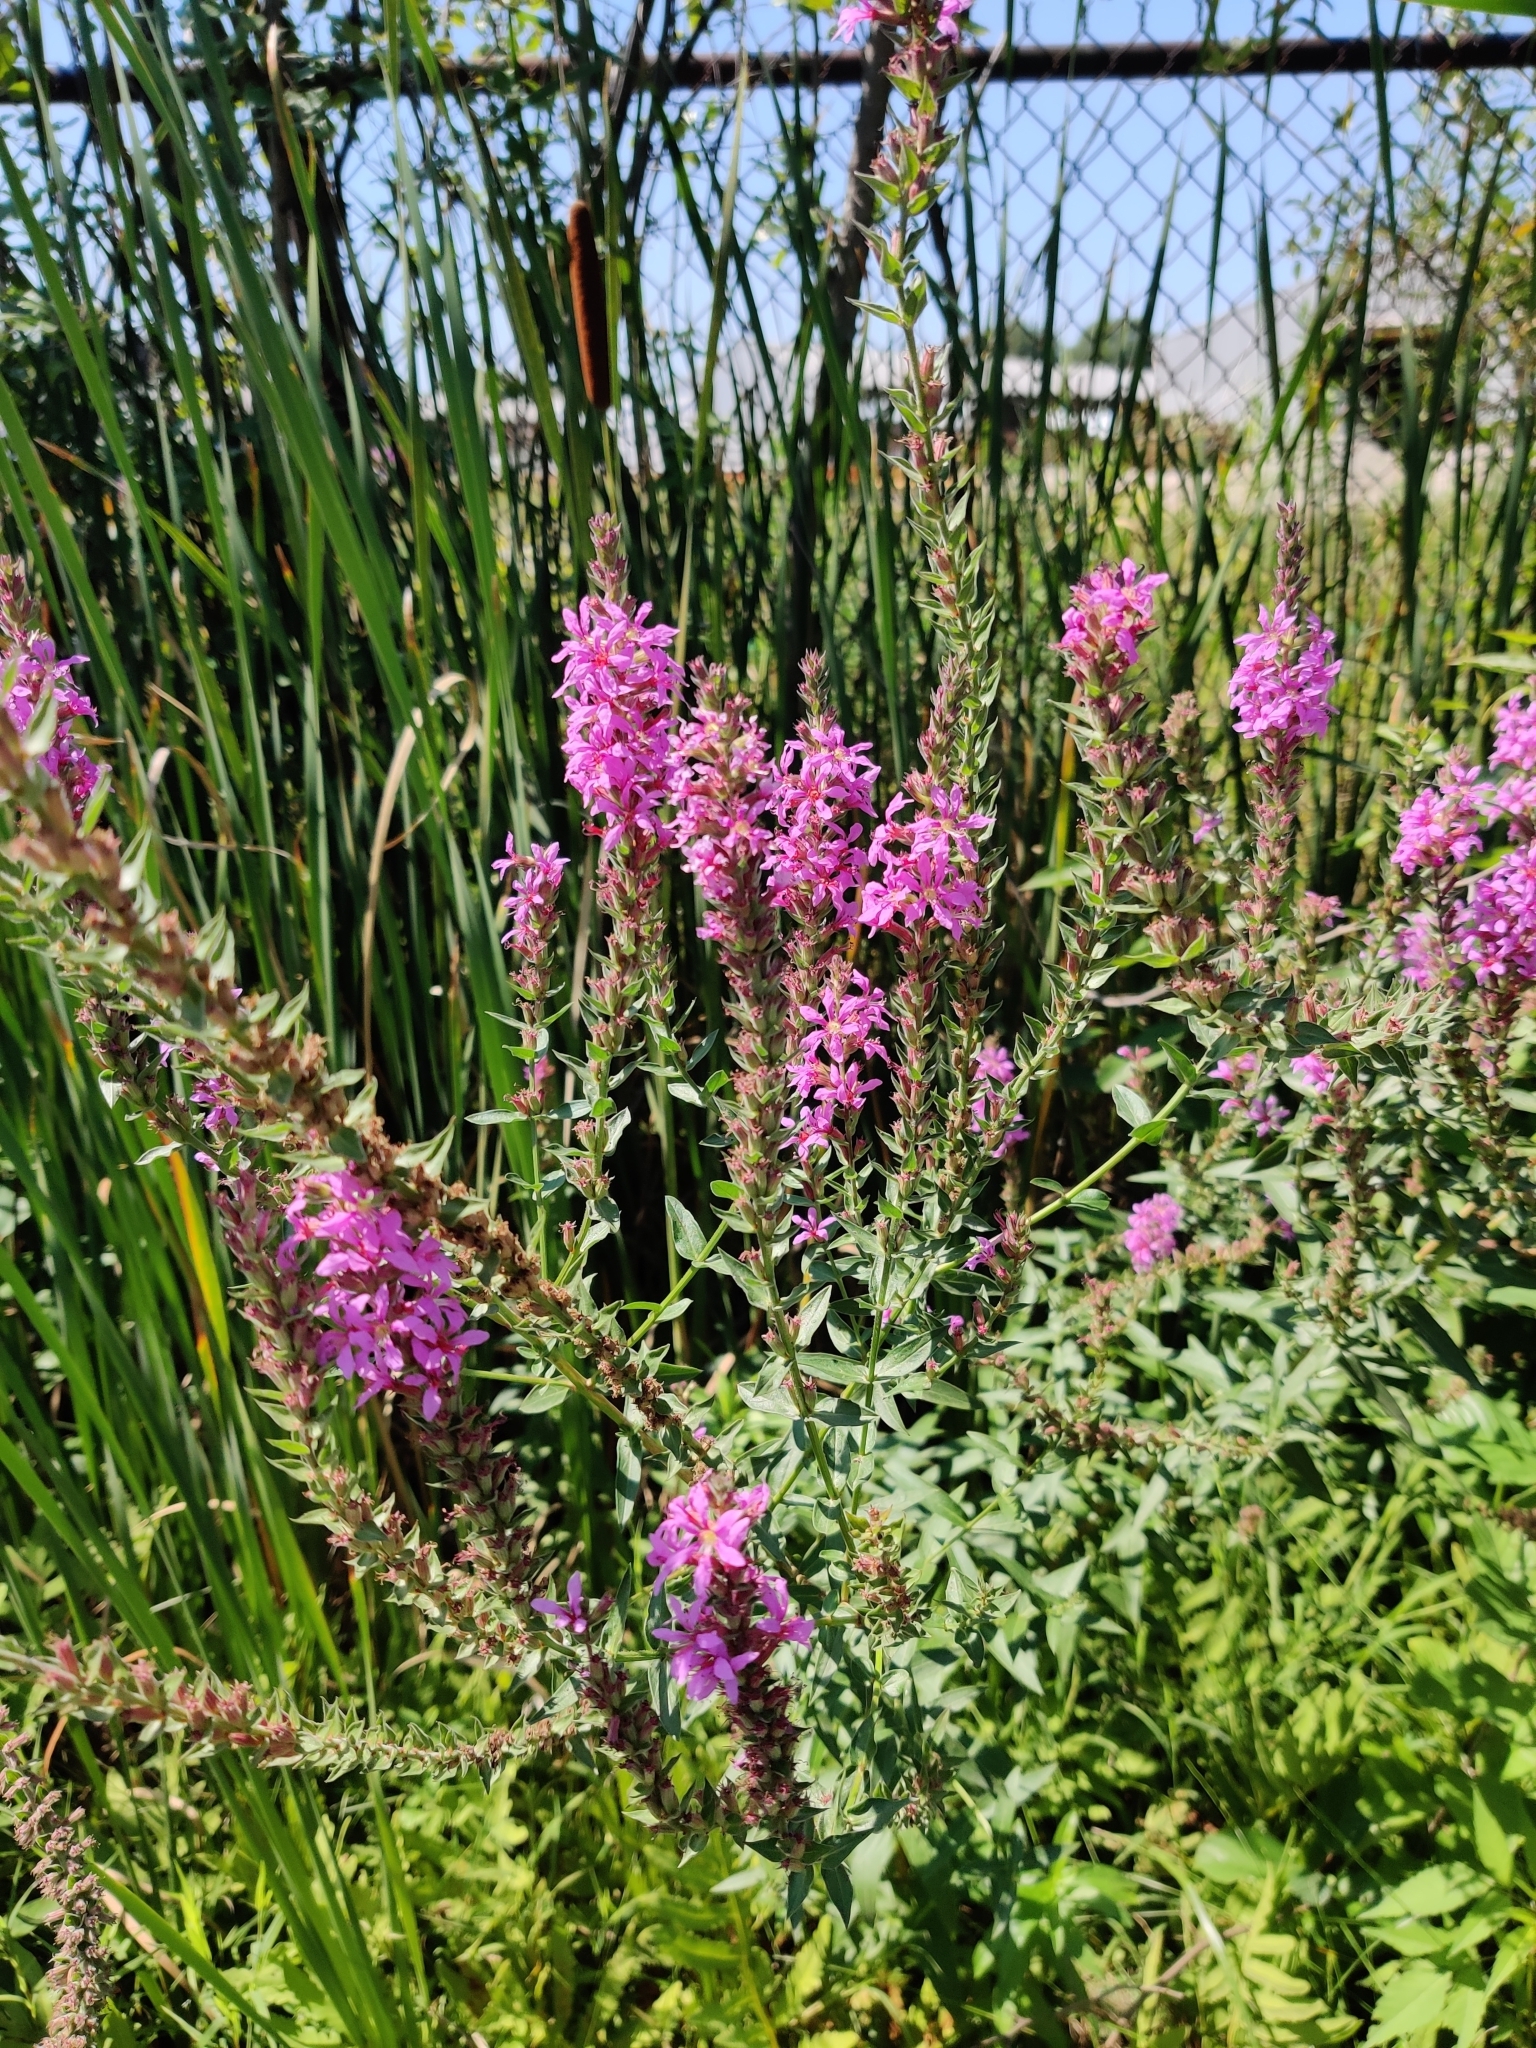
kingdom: Plantae
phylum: Tracheophyta
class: Magnoliopsida
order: Myrtales
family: Lythraceae
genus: Lythrum
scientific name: Lythrum salicaria
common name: Purple loosestrife
